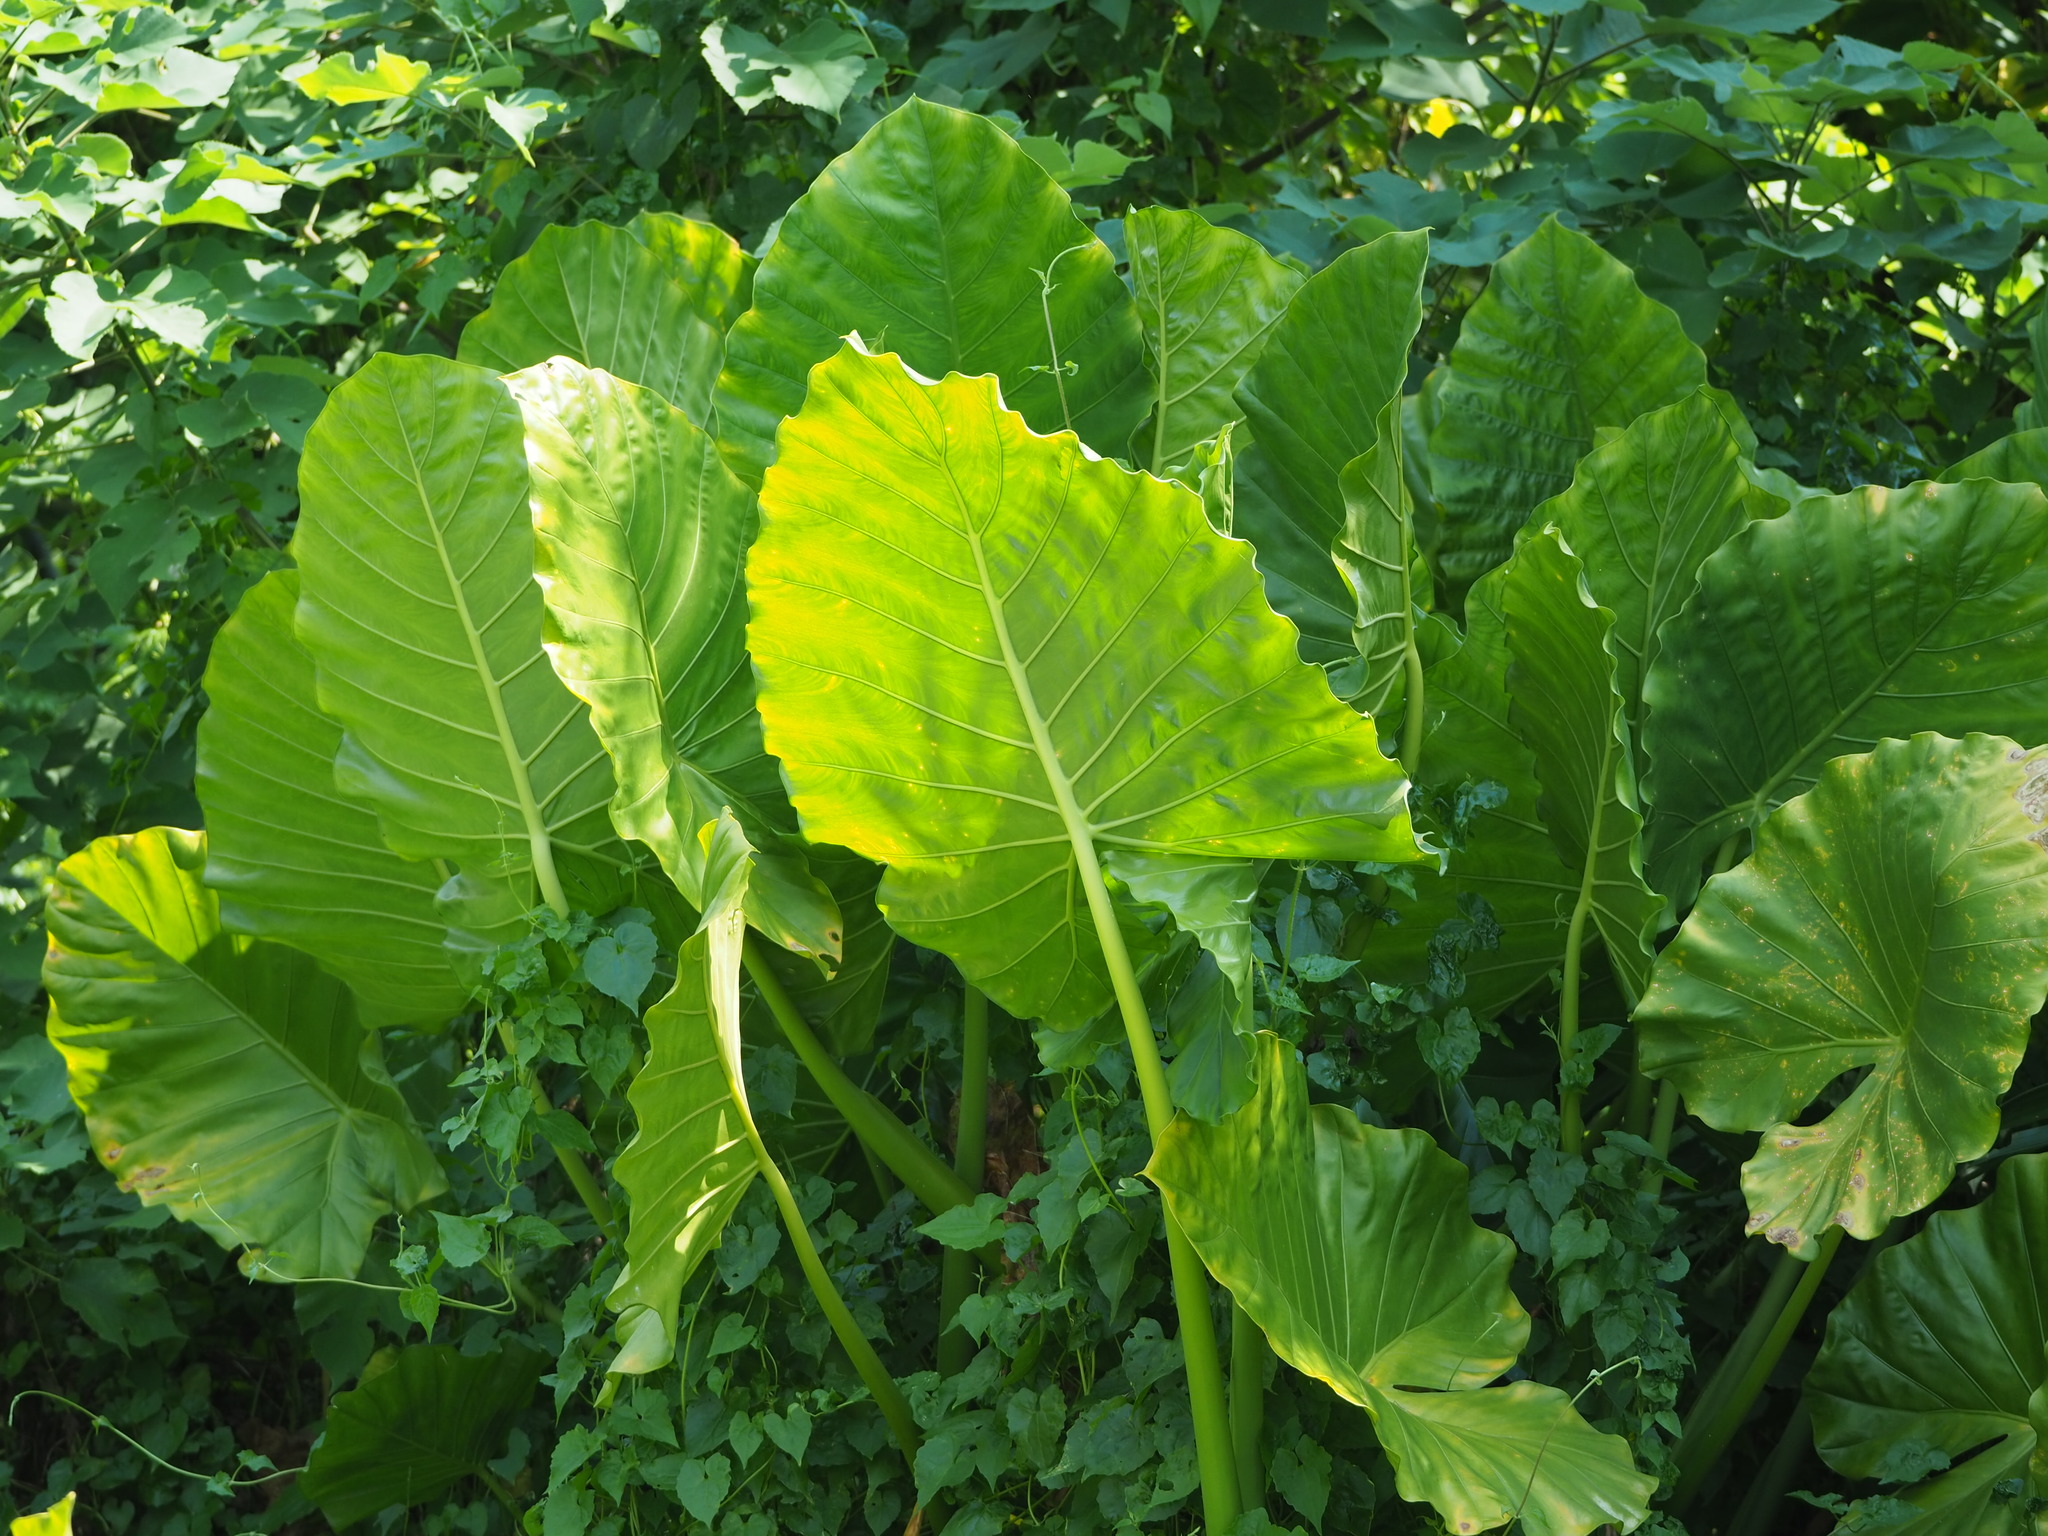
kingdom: Plantae
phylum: Tracheophyta
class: Liliopsida
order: Alismatales
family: Araceae
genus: Alocasia
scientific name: Alocasia odora
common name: Asian taro
